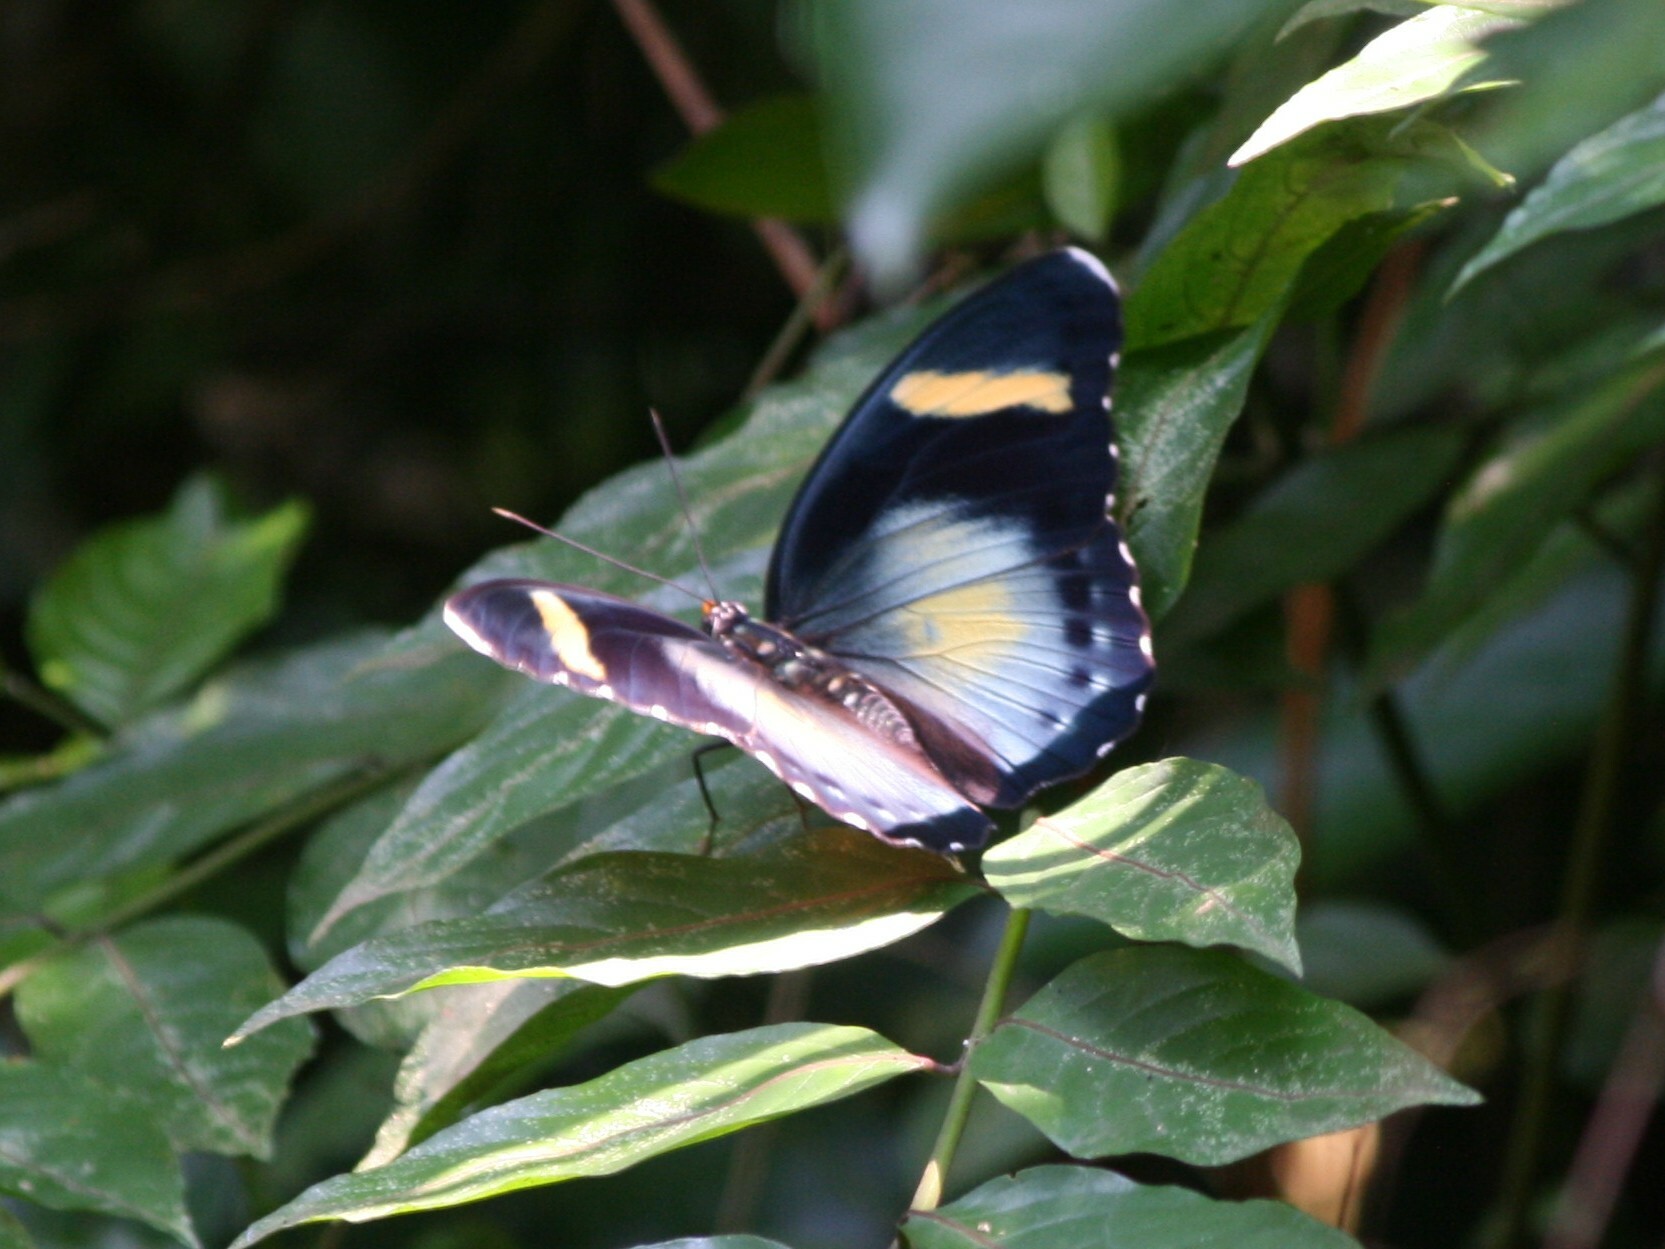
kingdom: Animalia
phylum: Arthropoda
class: Insecta
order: Lepidoptera
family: Nymphalidae
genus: Euphaedra
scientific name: Euphaedra preussiana
